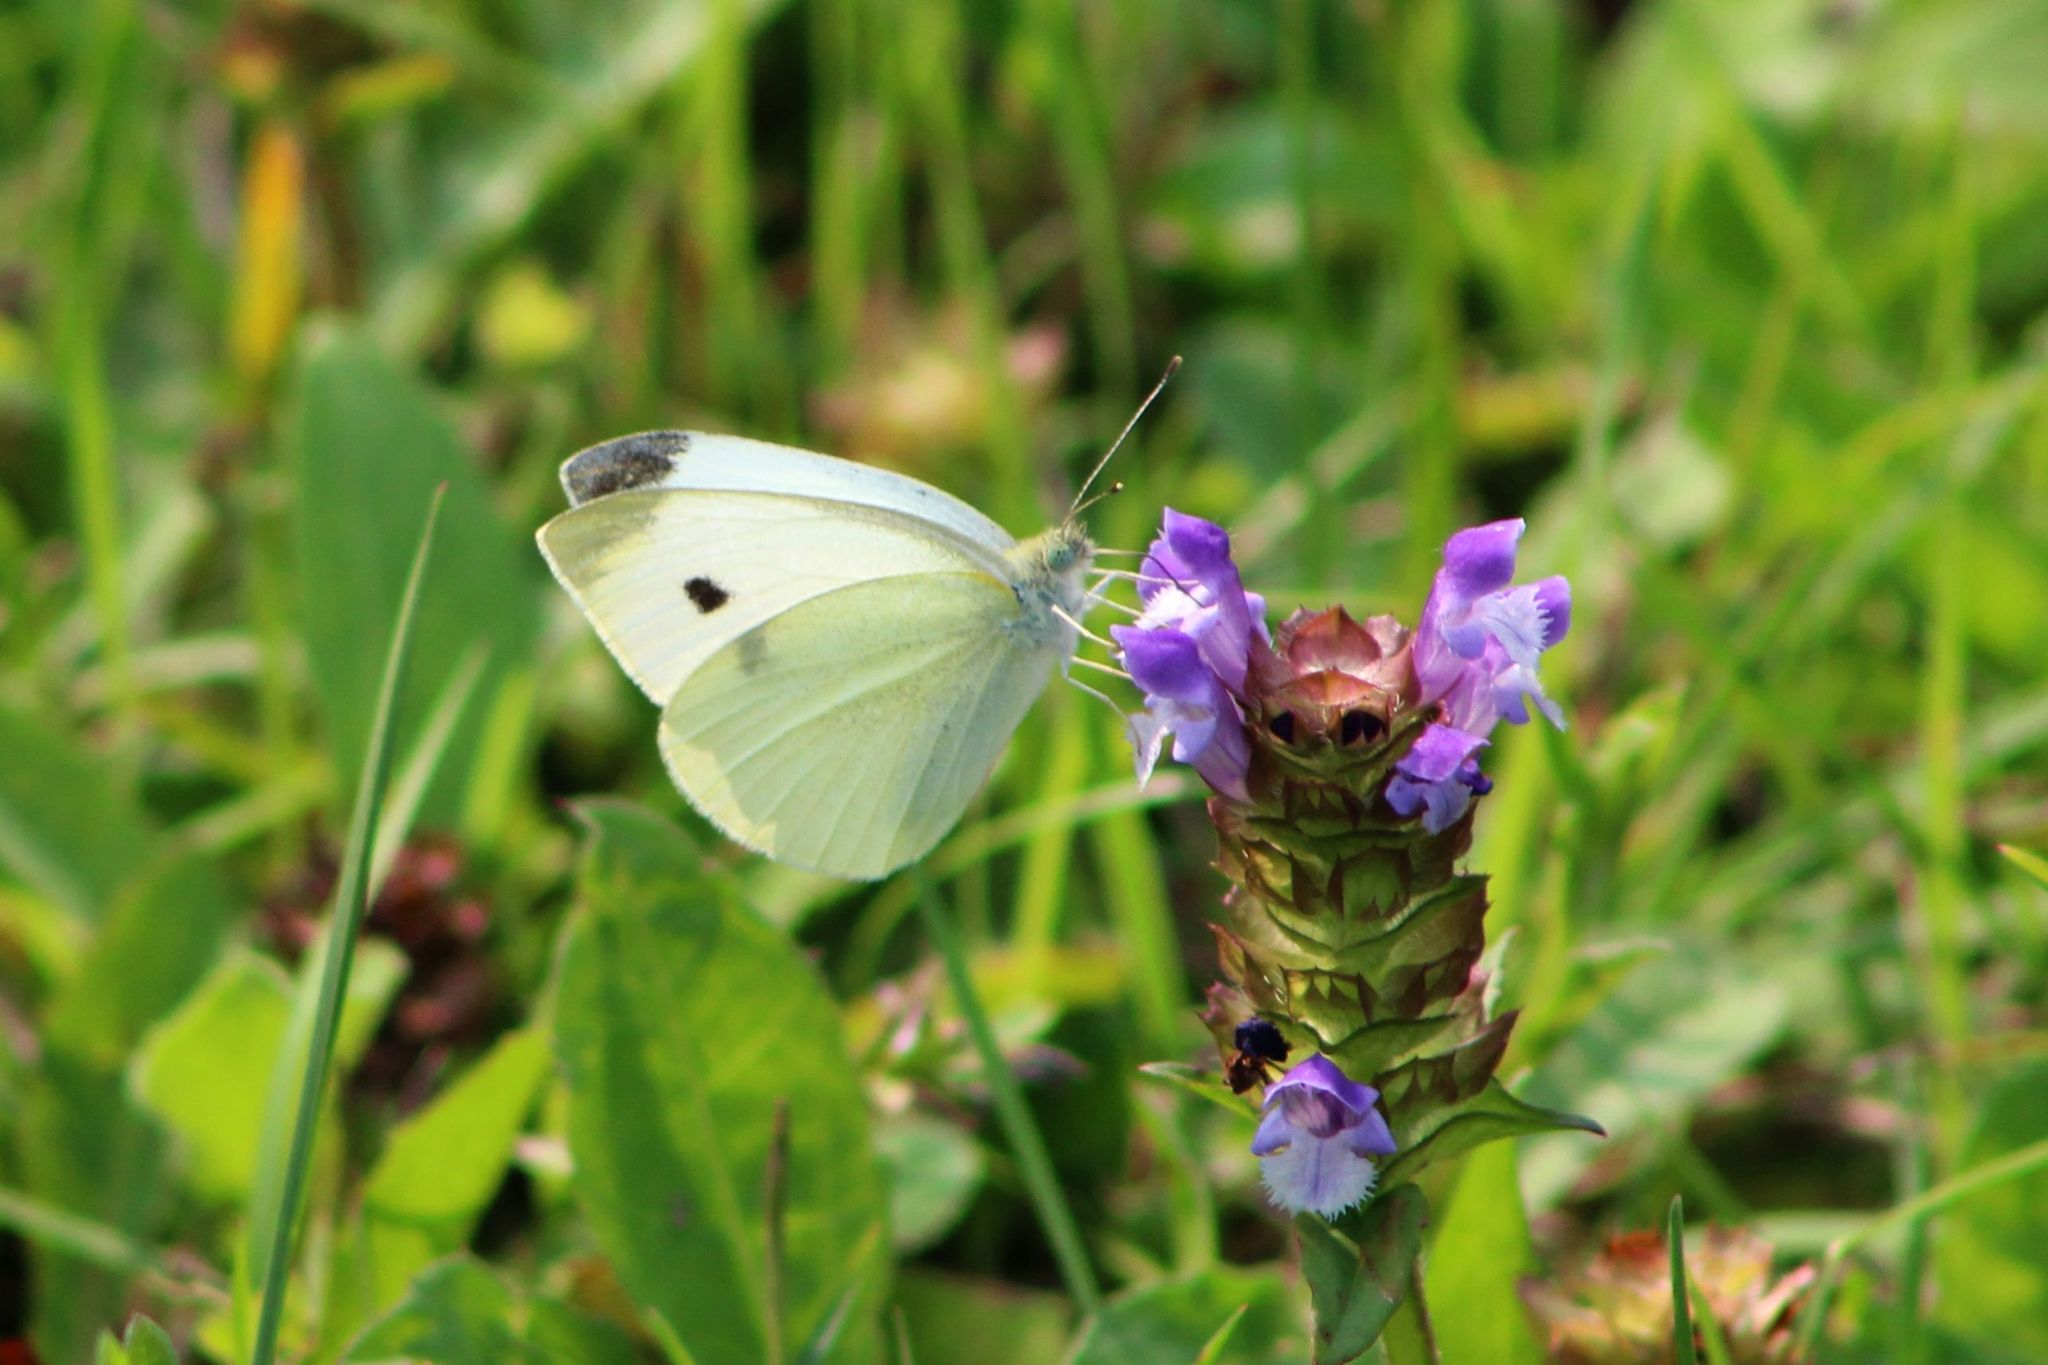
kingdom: Animalia
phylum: Arthropoda
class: Insecta
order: Lepidoptera
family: Pieridae
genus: Pieris
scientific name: Pieris rapae
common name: Small white
